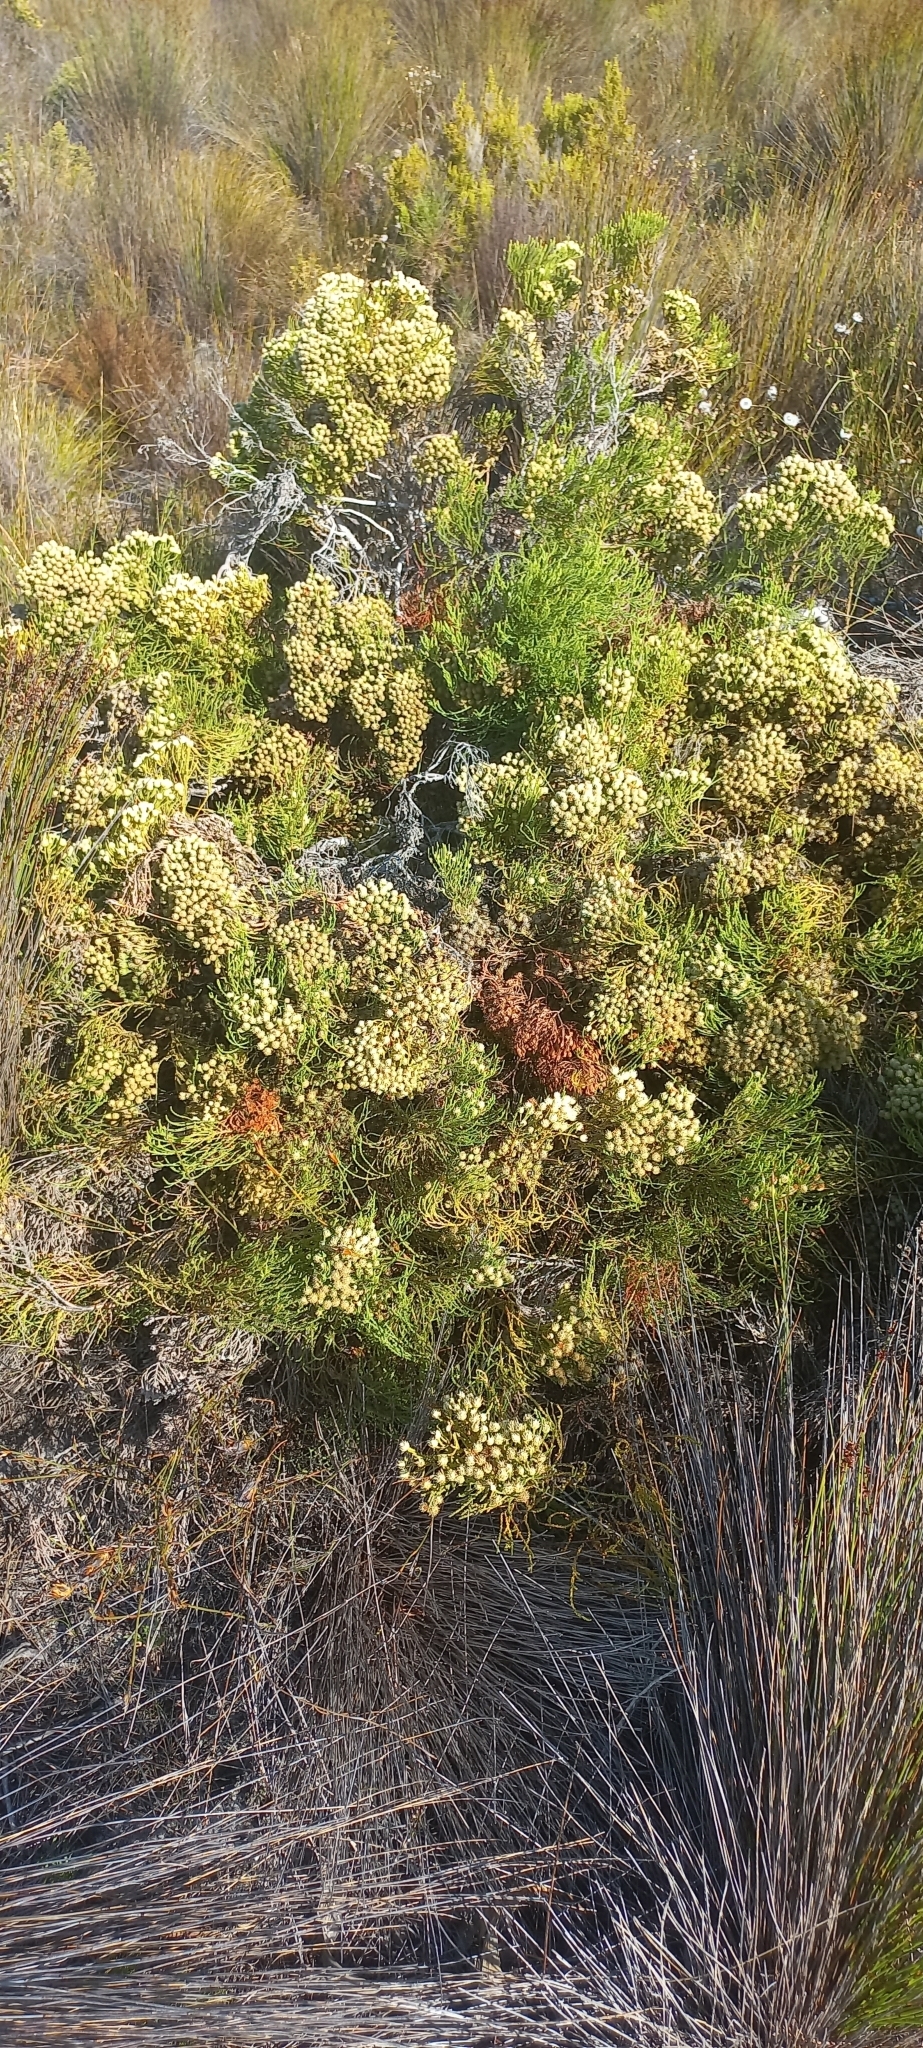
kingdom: Plantae
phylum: Tracheophyta
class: Magnoliopsida
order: Bruniales
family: Bruniaceae
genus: Brunia
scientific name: Brunia paleacea
